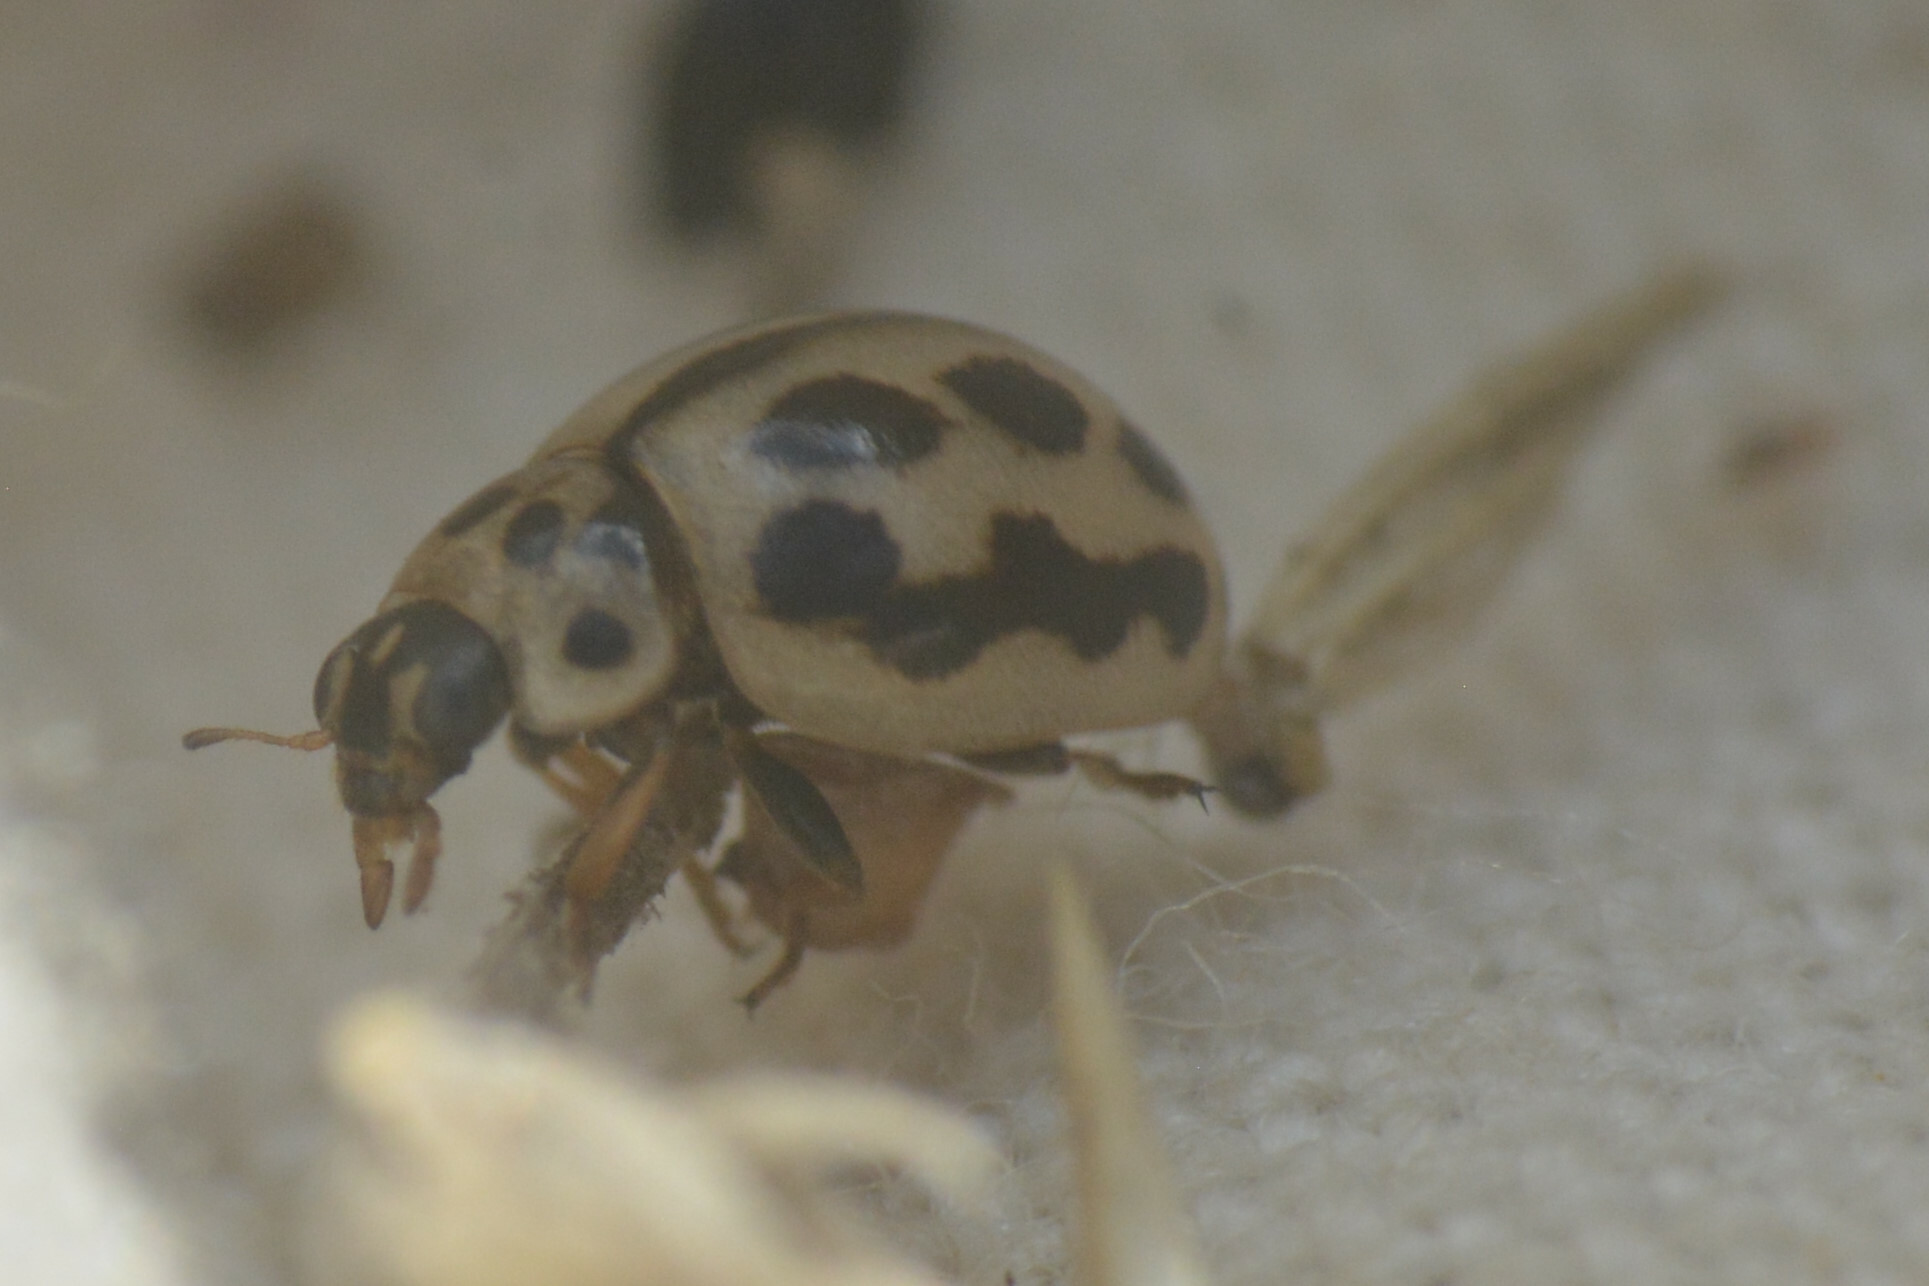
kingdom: Animalia
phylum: Arthropoda
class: Insecta
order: Coleoptera
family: Coccinellidae
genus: Tytthaspis
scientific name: Tytthaspis sedecimpunctata
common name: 16-spot ladybird
